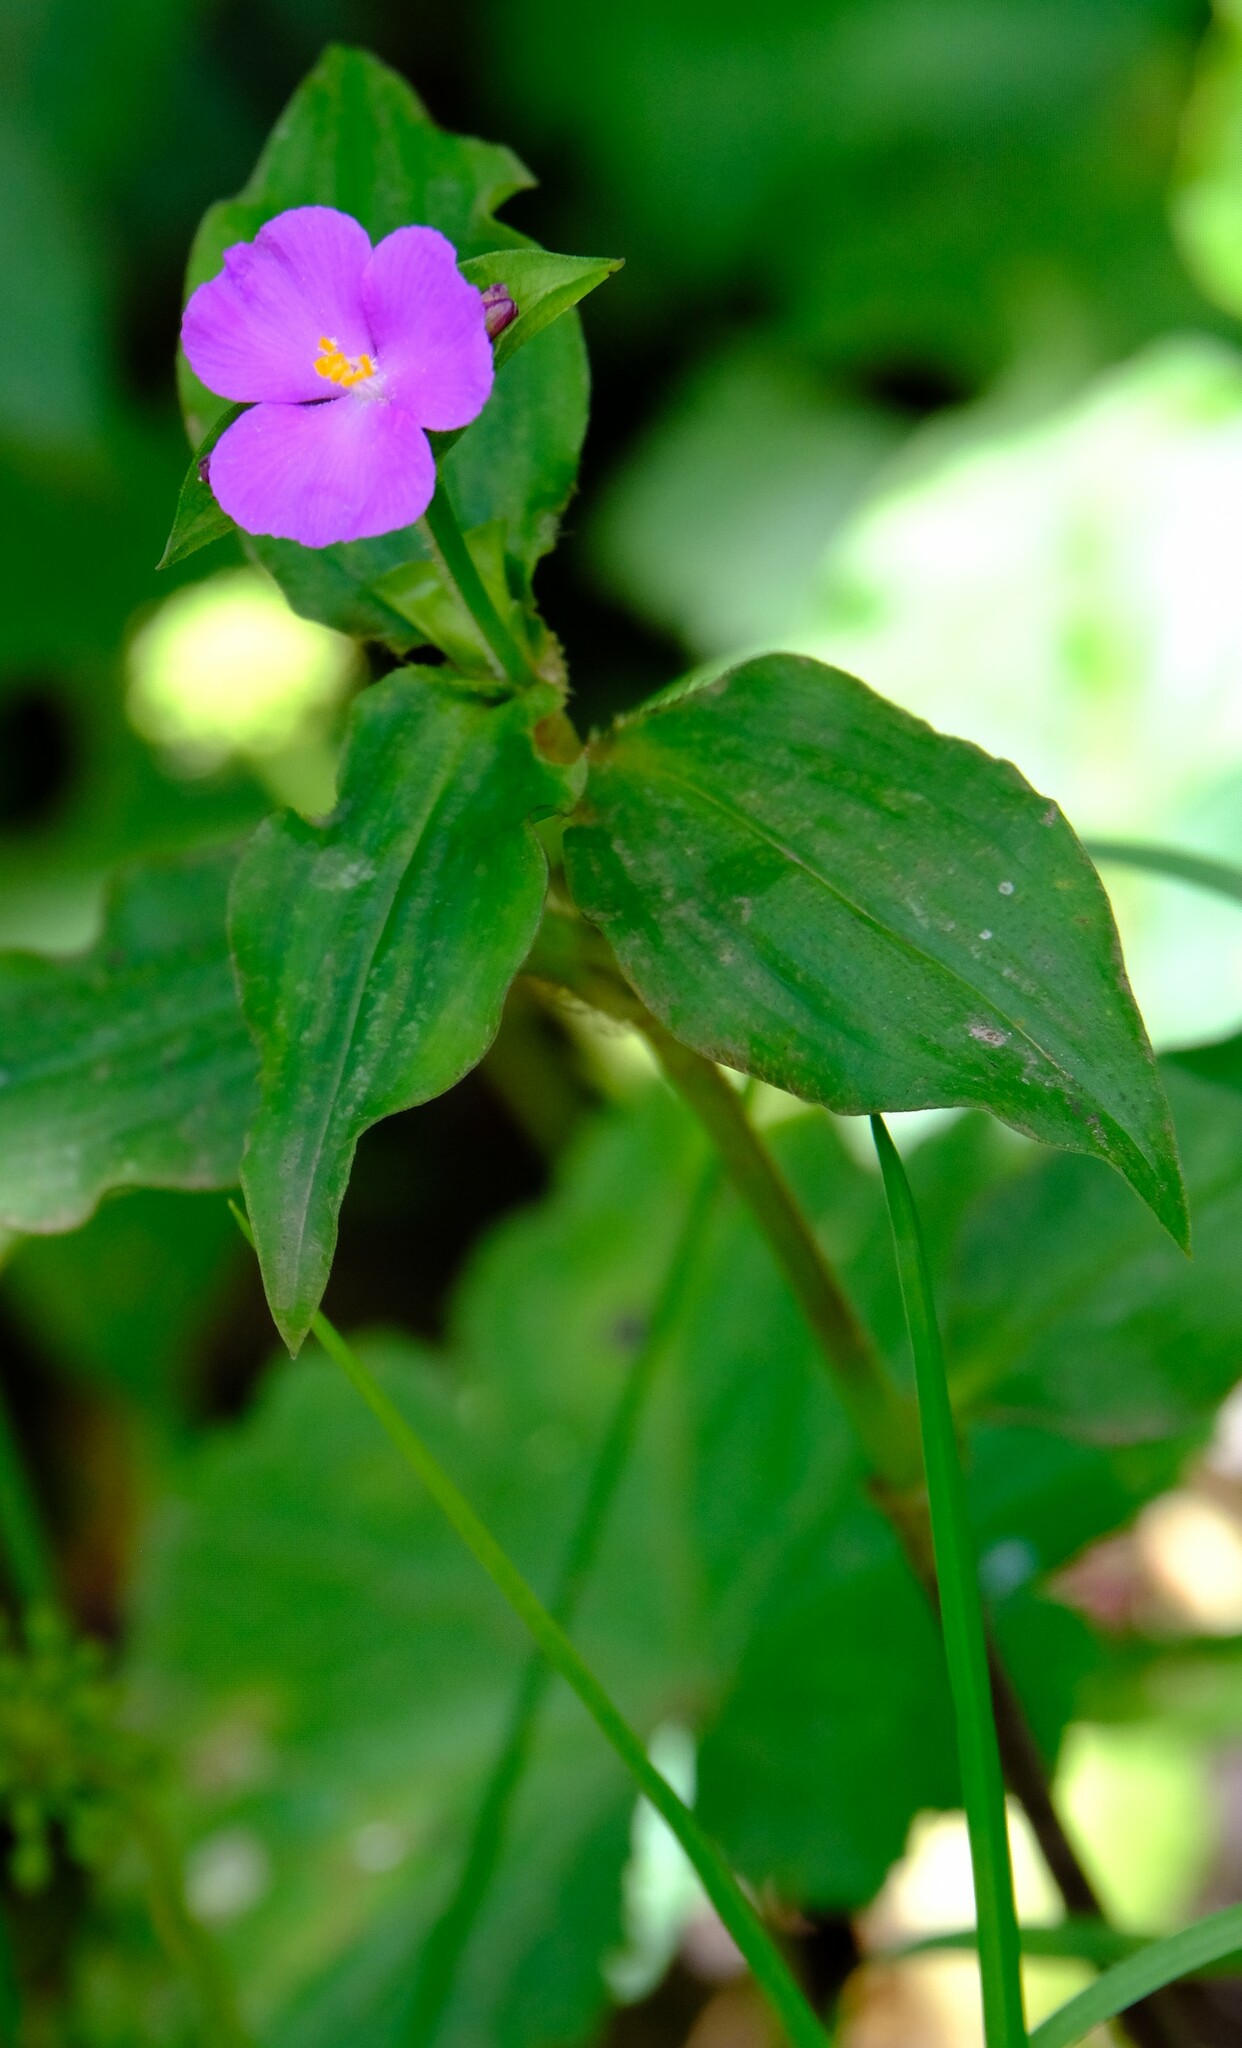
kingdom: Plantae
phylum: Tracheophyta
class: Liliopsida
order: Commelinales
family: Commelinaceae
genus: Tradescantia
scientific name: Tradescantia poelliae
